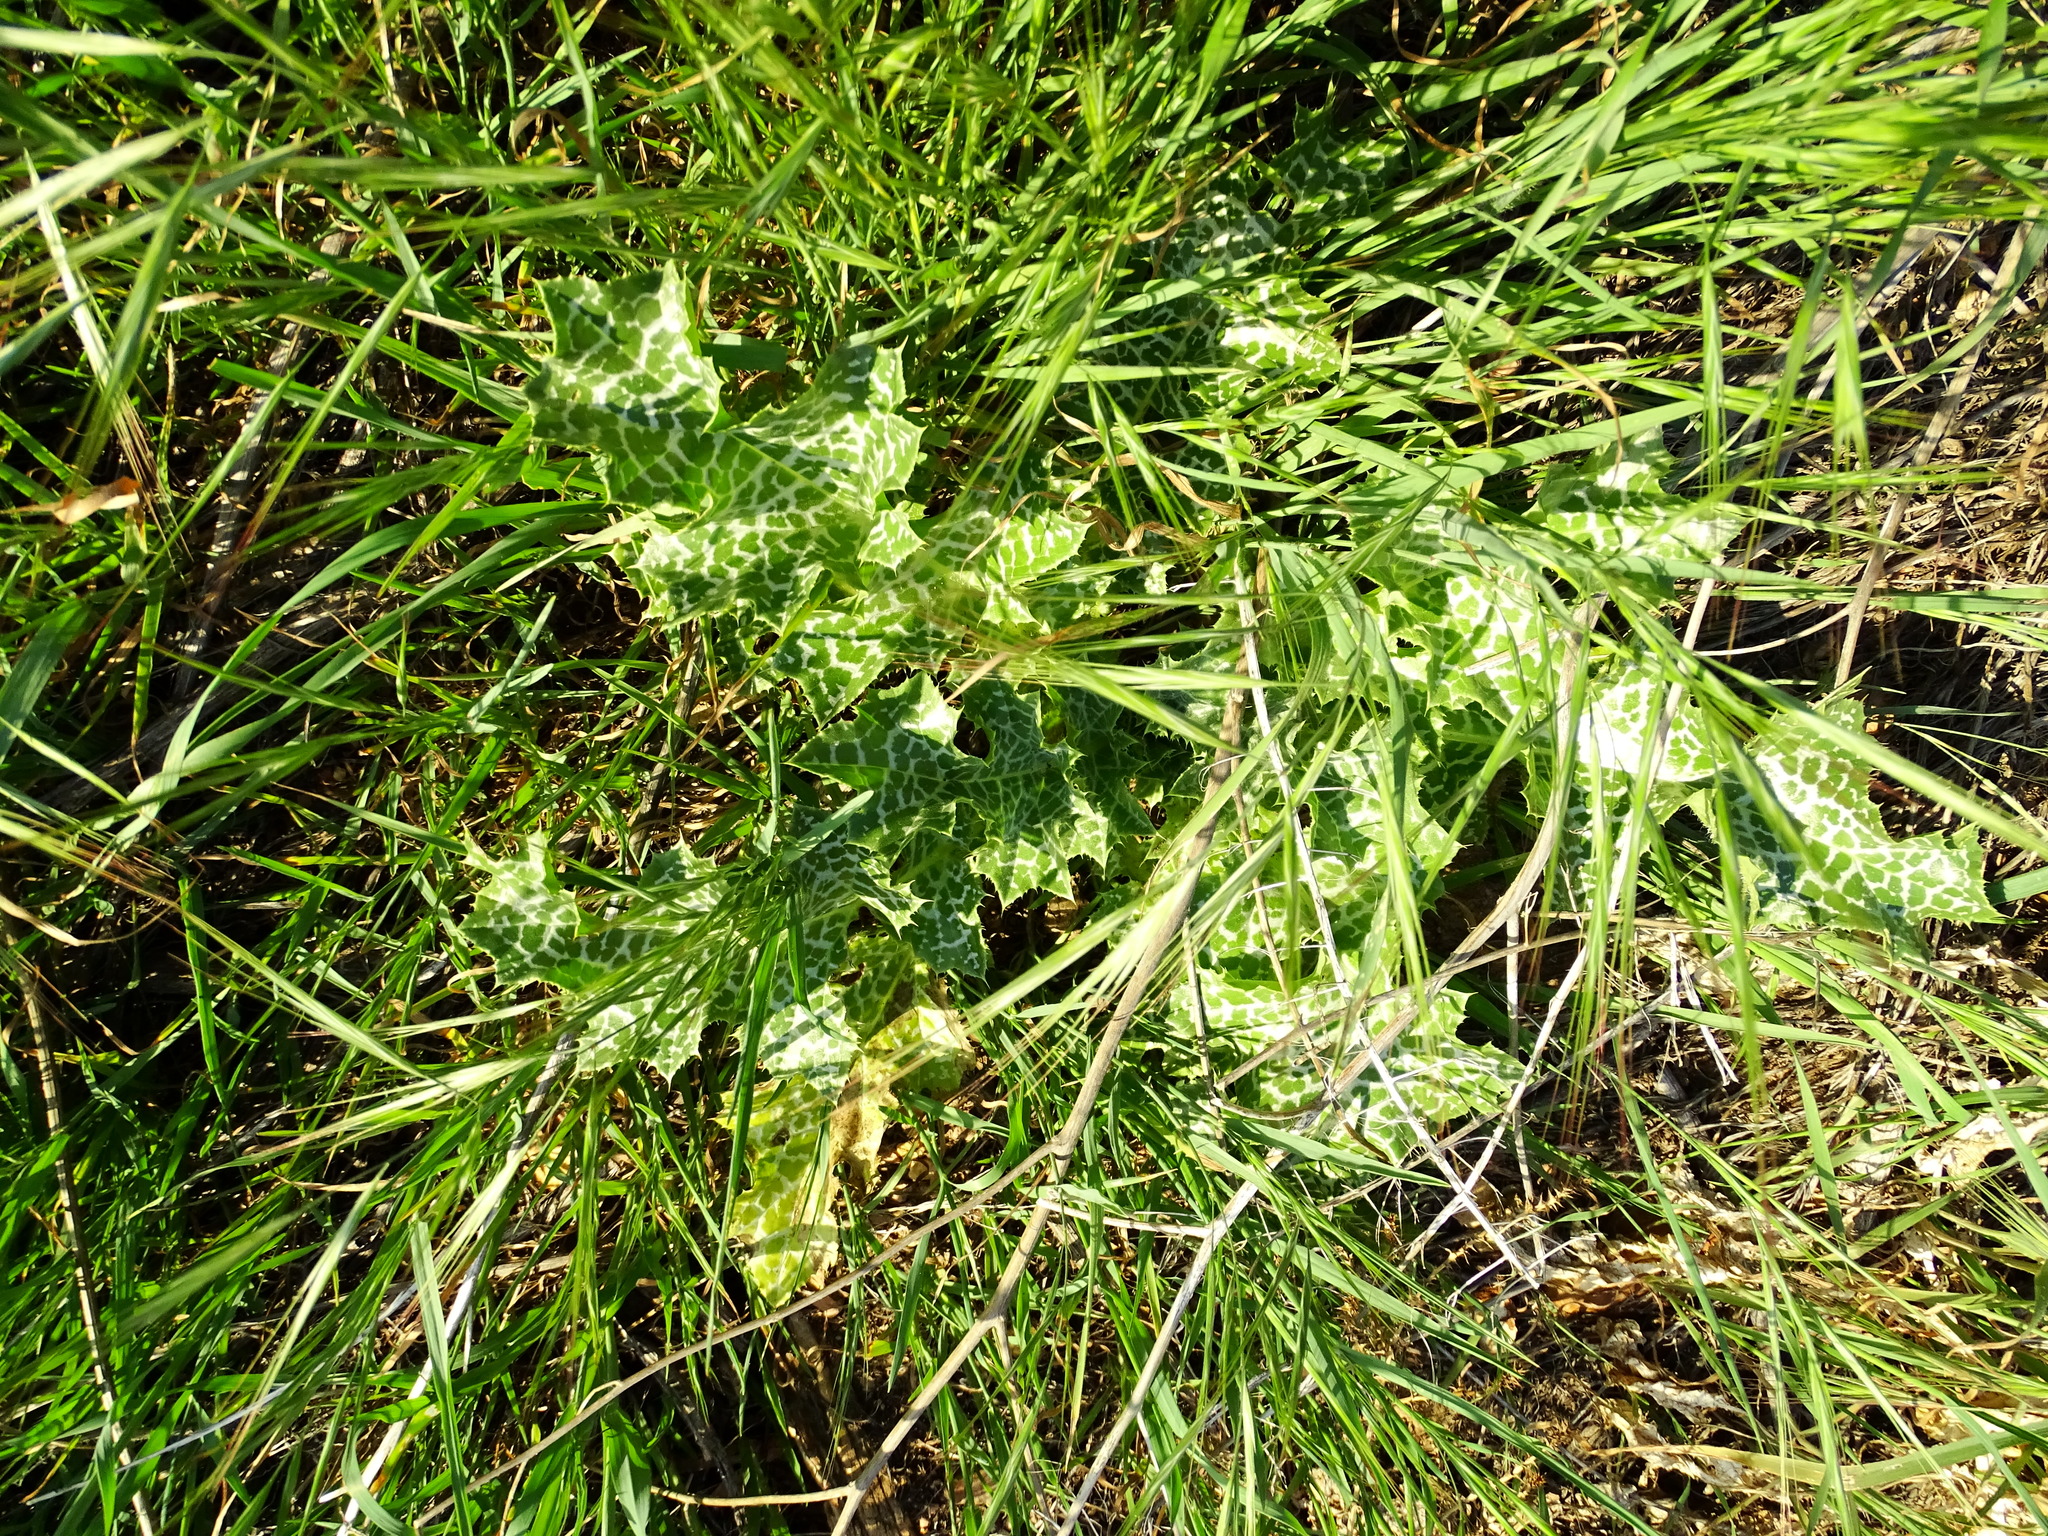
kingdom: Plantae
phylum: Tracheophyta
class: Magnoliopsida
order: Asterales
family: Asteraceae
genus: Silybum
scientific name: Silybum marianum
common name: Milk thistle
